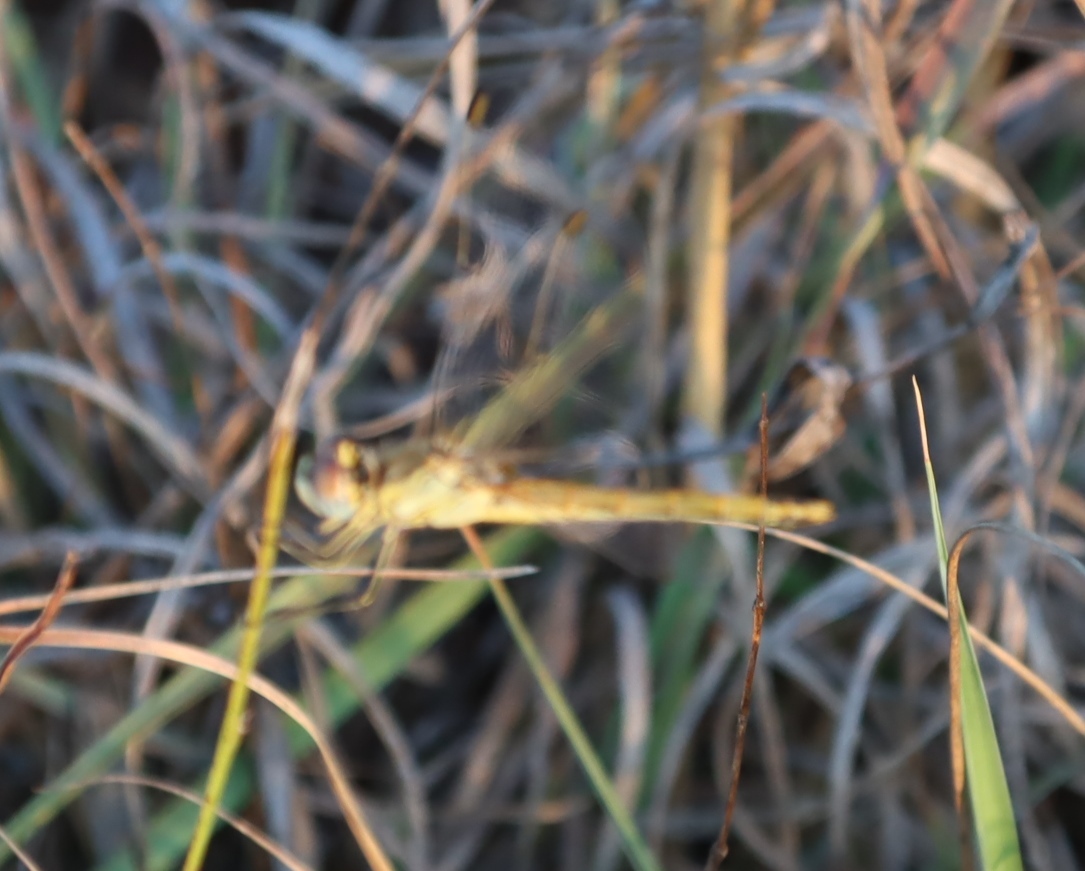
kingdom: Animalia
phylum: Arthropoda
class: Insecta
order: Odonata
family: Libellulidae
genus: Sympetrum
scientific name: Sympetrum fonscolombii
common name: Red-veined darter
